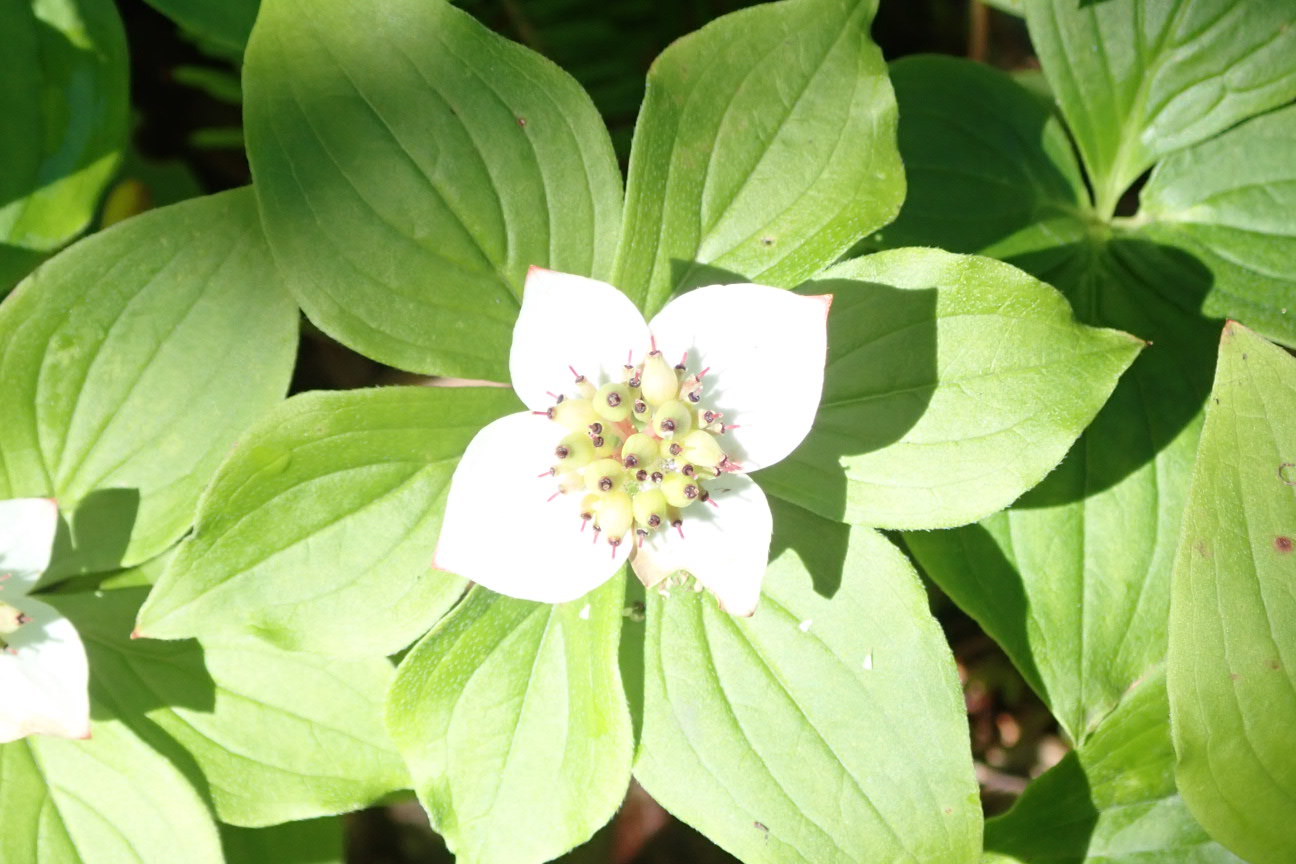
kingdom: Plantae
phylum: Tracheophyta
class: Magnoliopsida
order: Cornales
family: Cornaceae
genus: Cornus
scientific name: Cornus canadensis
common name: Creeping dogwood
